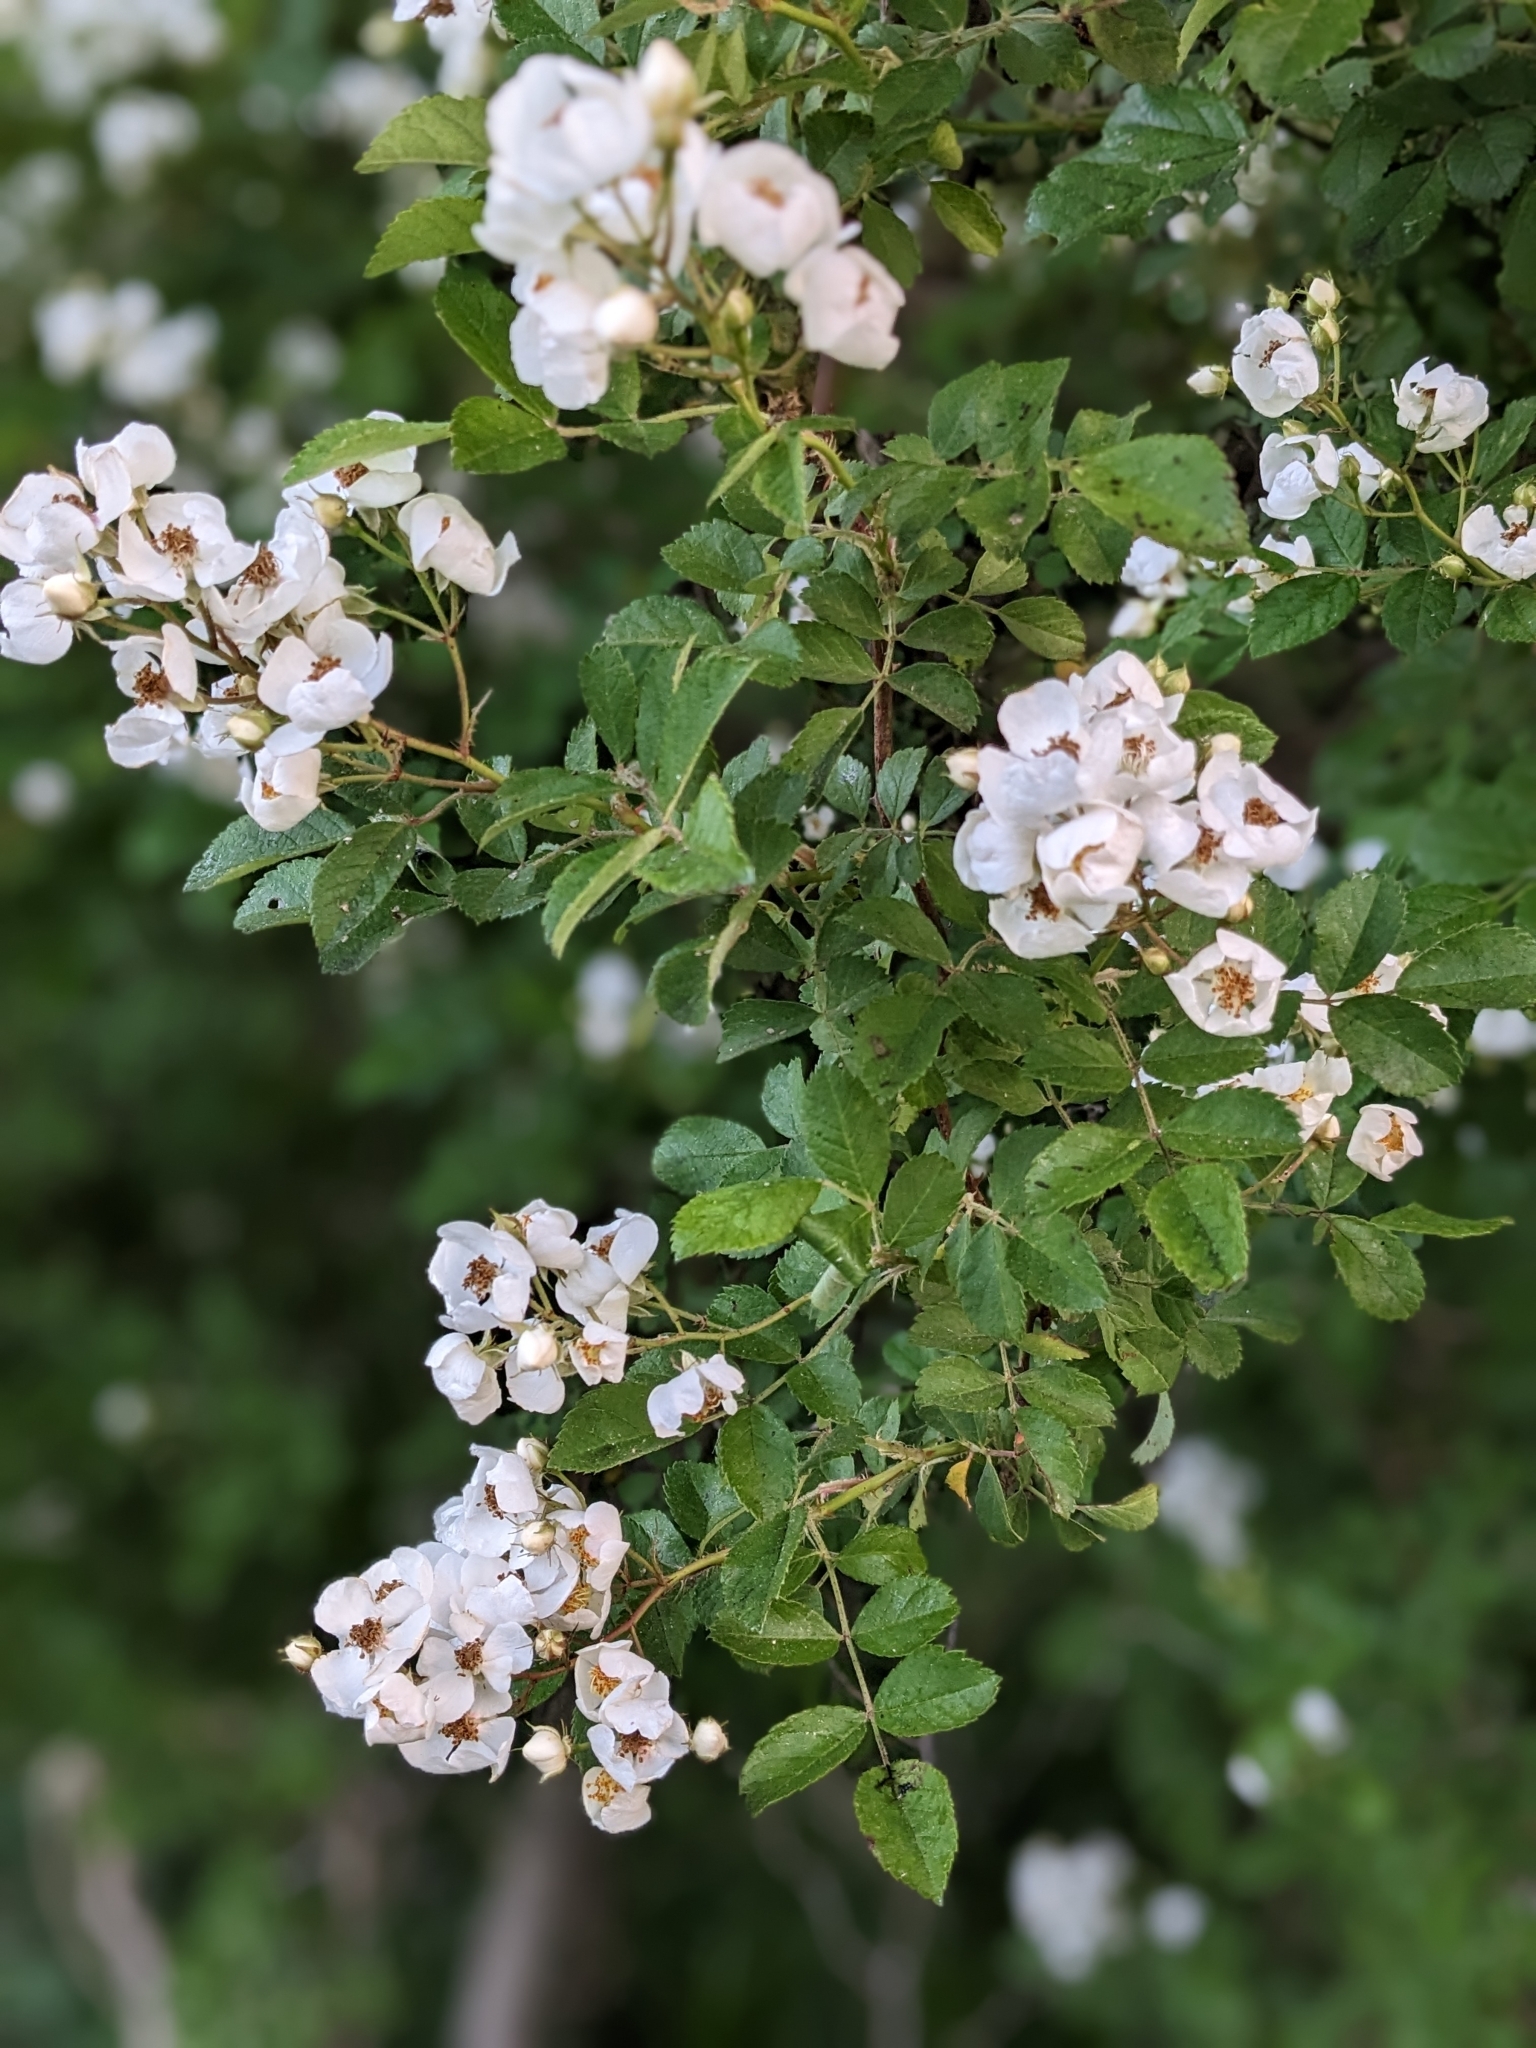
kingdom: Plantae
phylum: Tracheophyta
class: Magnoliopsida
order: Rosales
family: Rosaceae
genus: Rosa
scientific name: Rosa multiflora
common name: Multiflora rose
